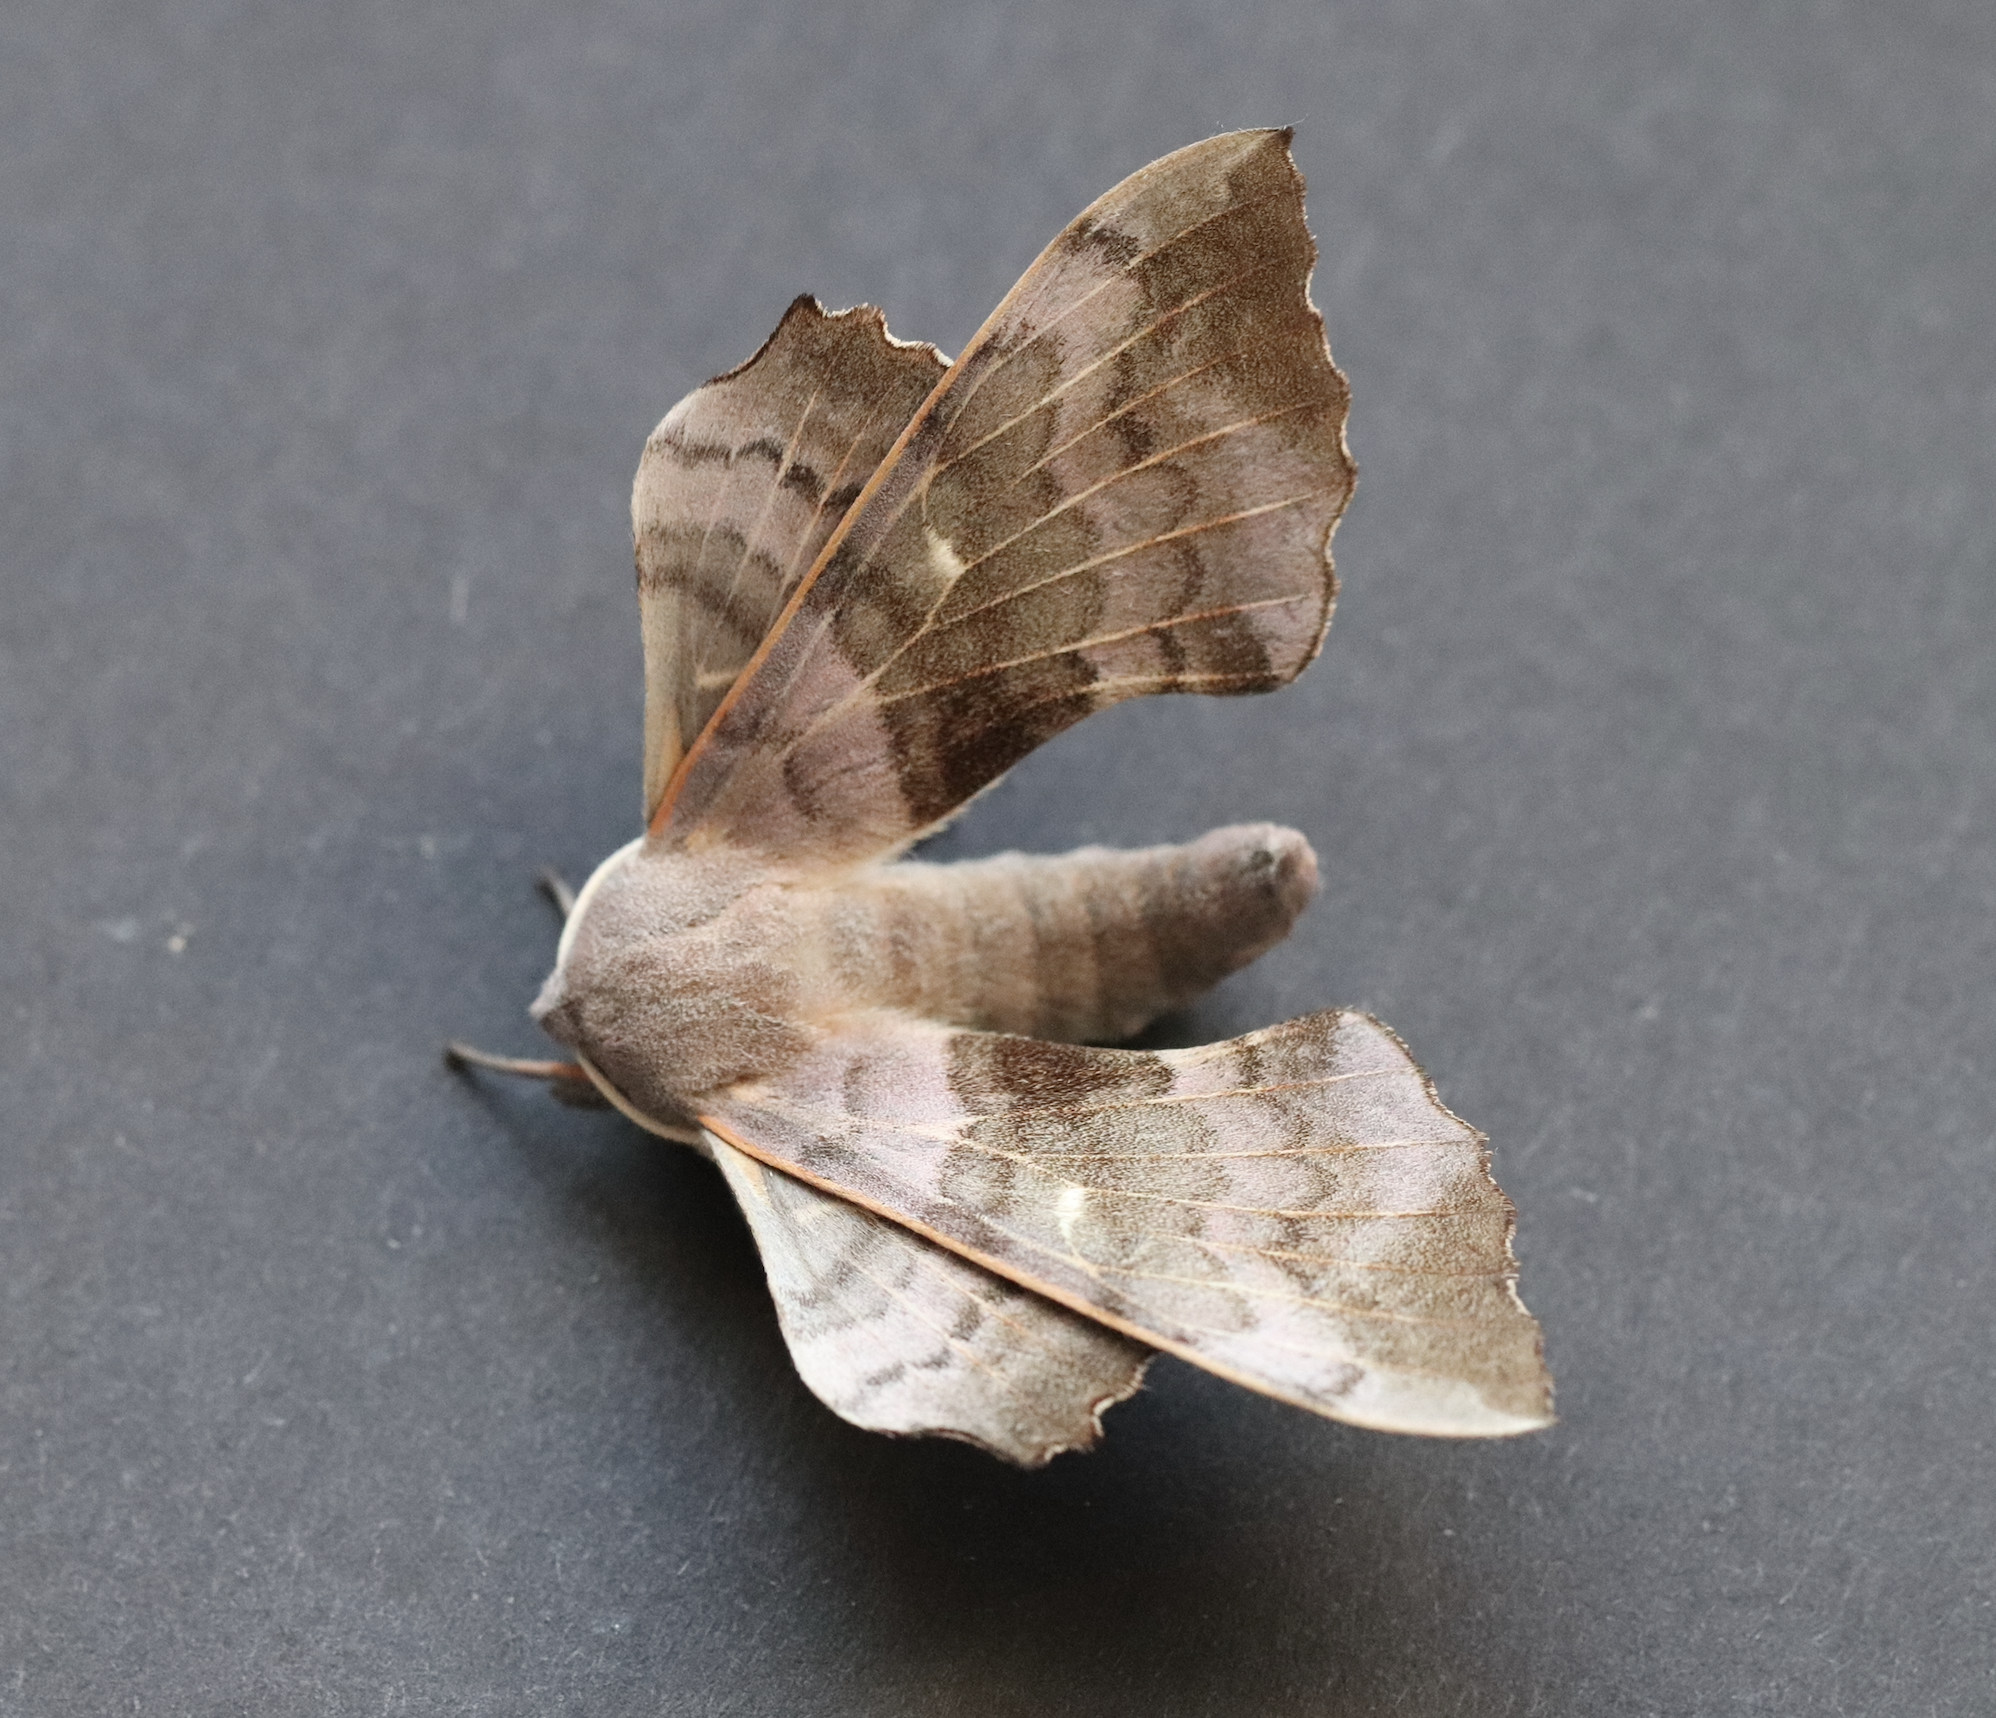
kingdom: Animalia
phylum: Arthropoda
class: Insecta
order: Lepidoptera
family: Sphingidae
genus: Laothoe
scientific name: Laothoe populi
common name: Poplar hawk-moth
